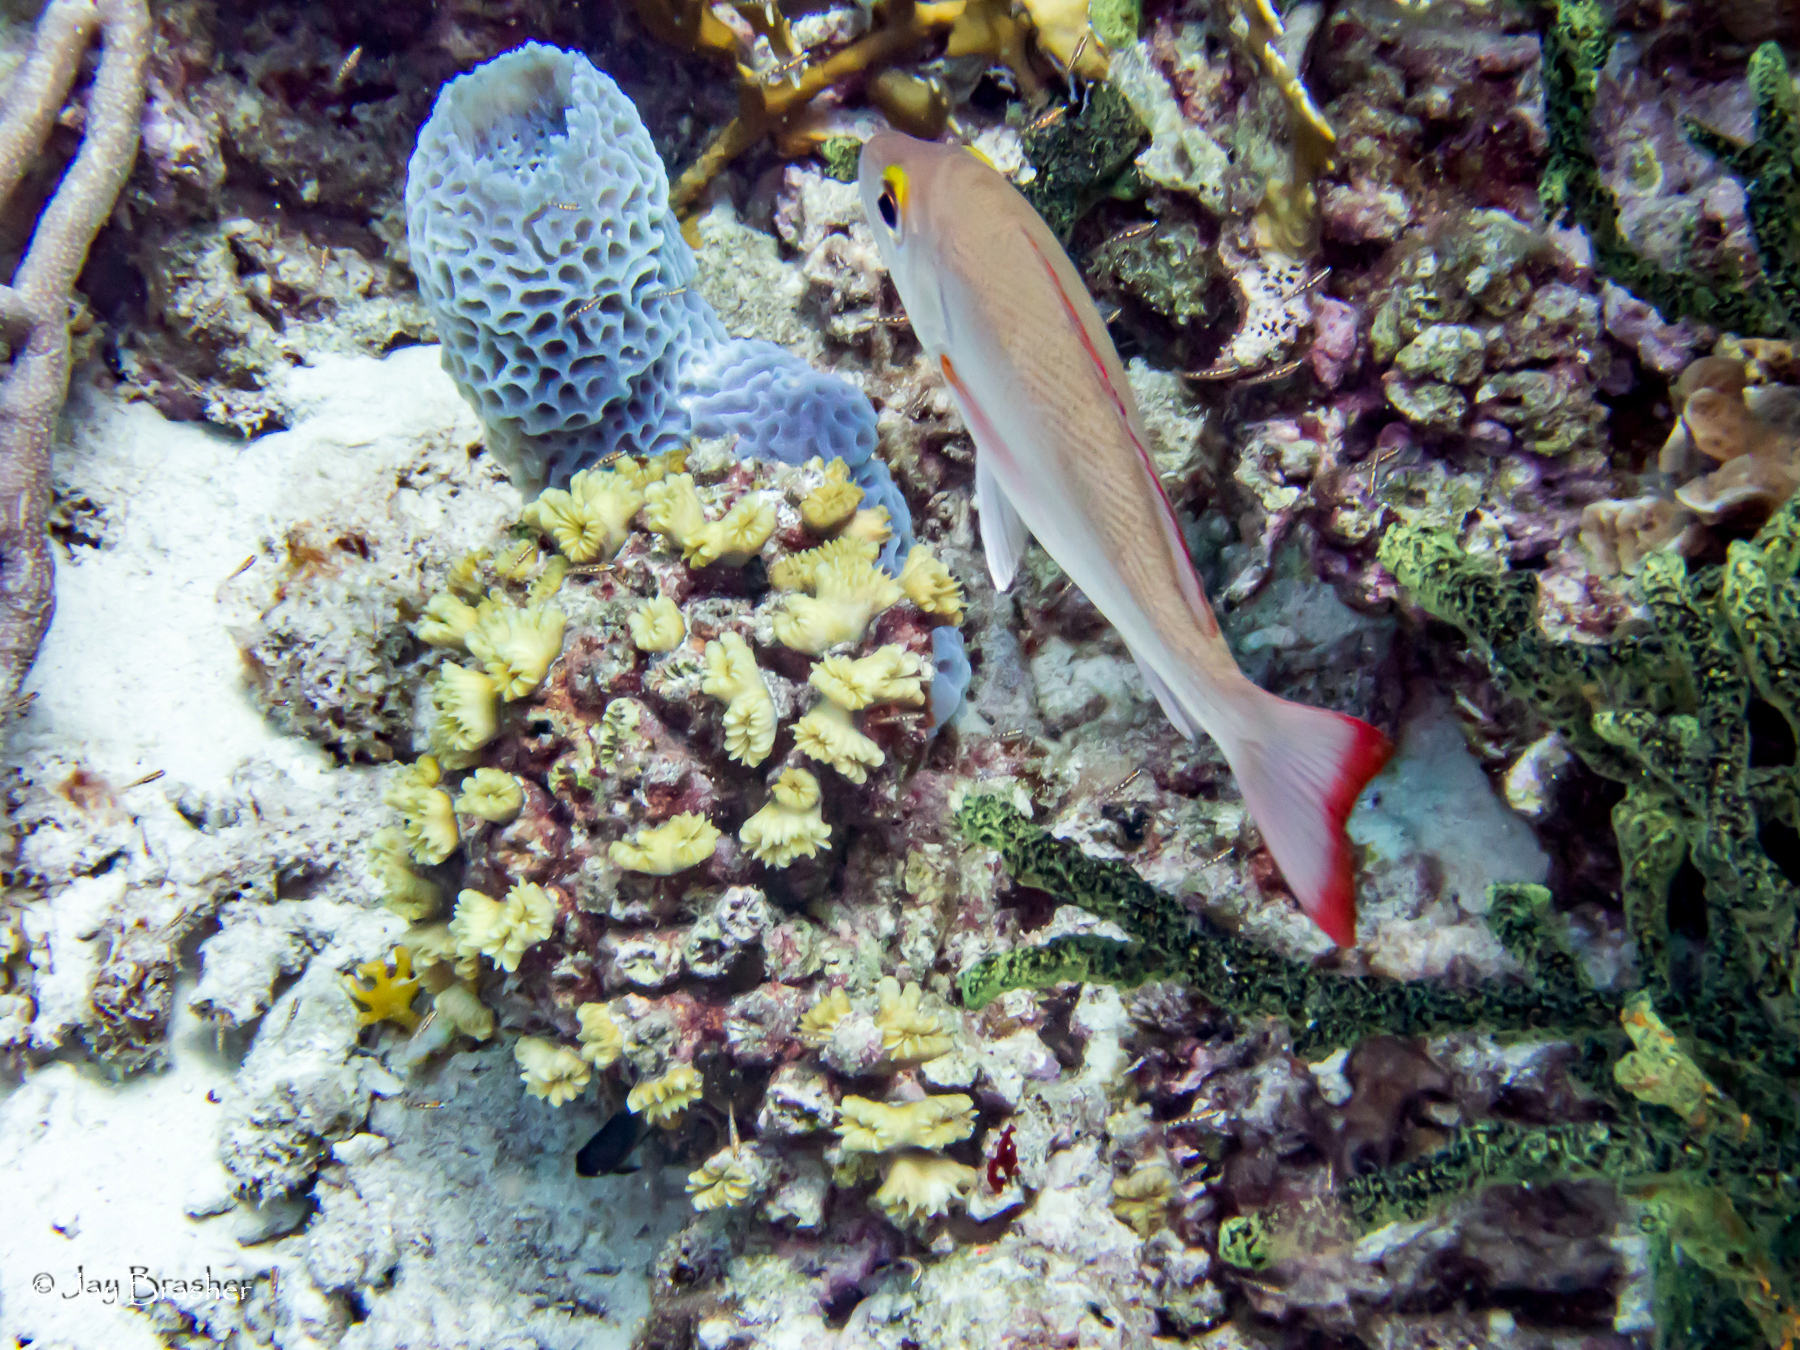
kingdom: Animalia
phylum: Porifera
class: Demospongiae
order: Poecilosclerida
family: Iotrochotidae
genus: Iotrochota
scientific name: Iotrochota birotulata
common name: Purple bleeding sponge
